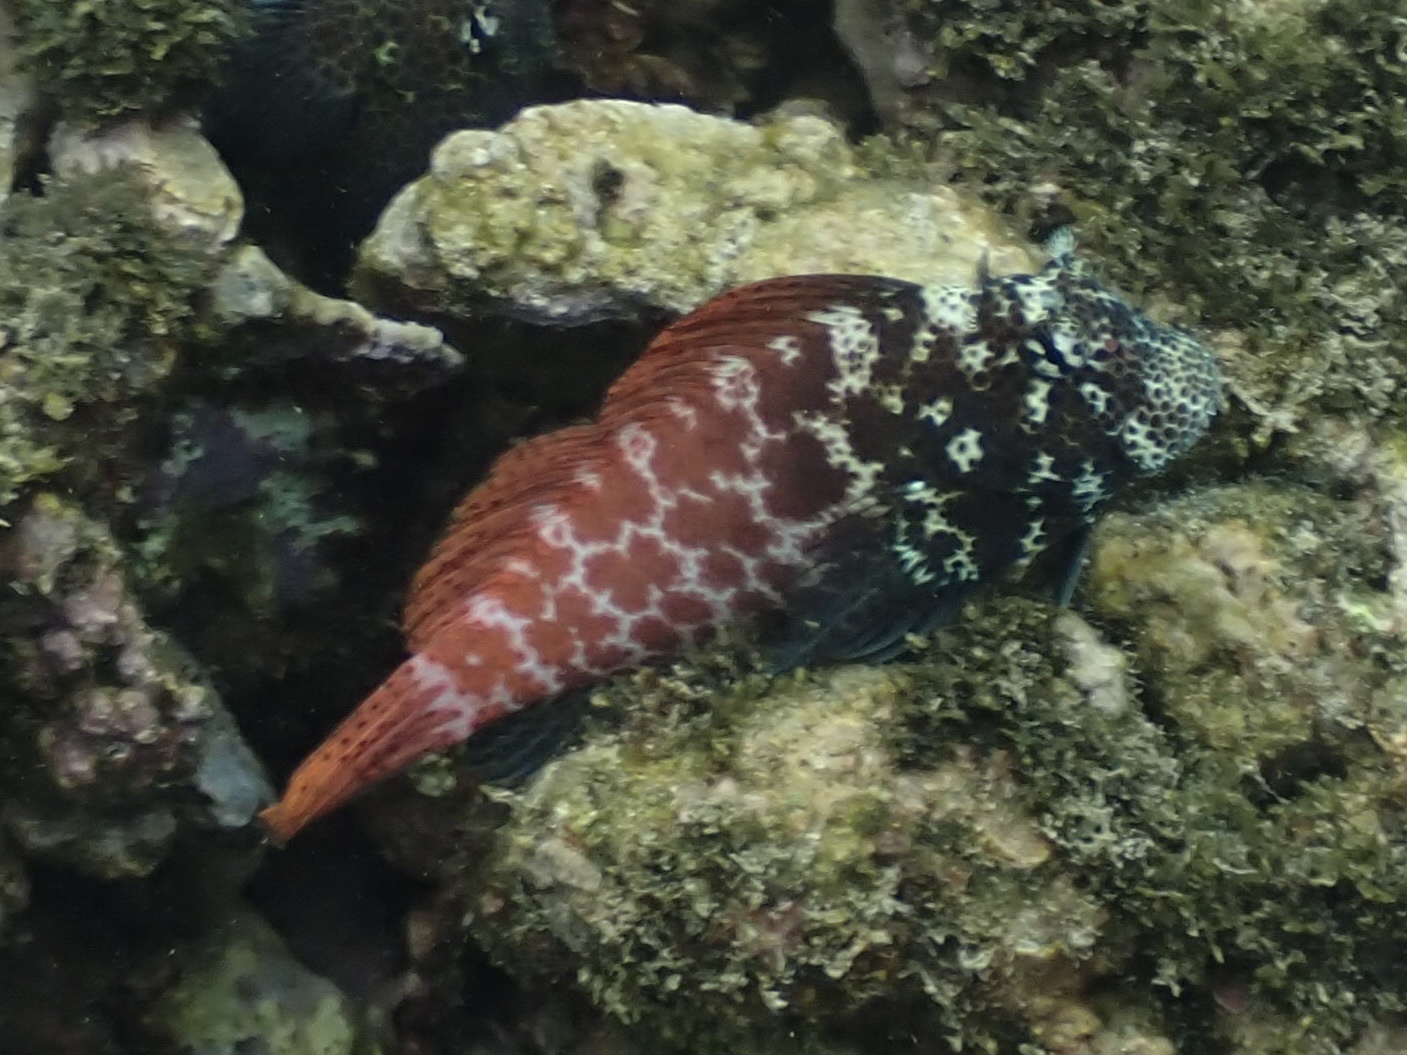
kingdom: Animalia
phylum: Chordata
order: Perciformes
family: Blenniidae
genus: Exallias
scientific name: Exallias brevis
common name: Leopard blenny
